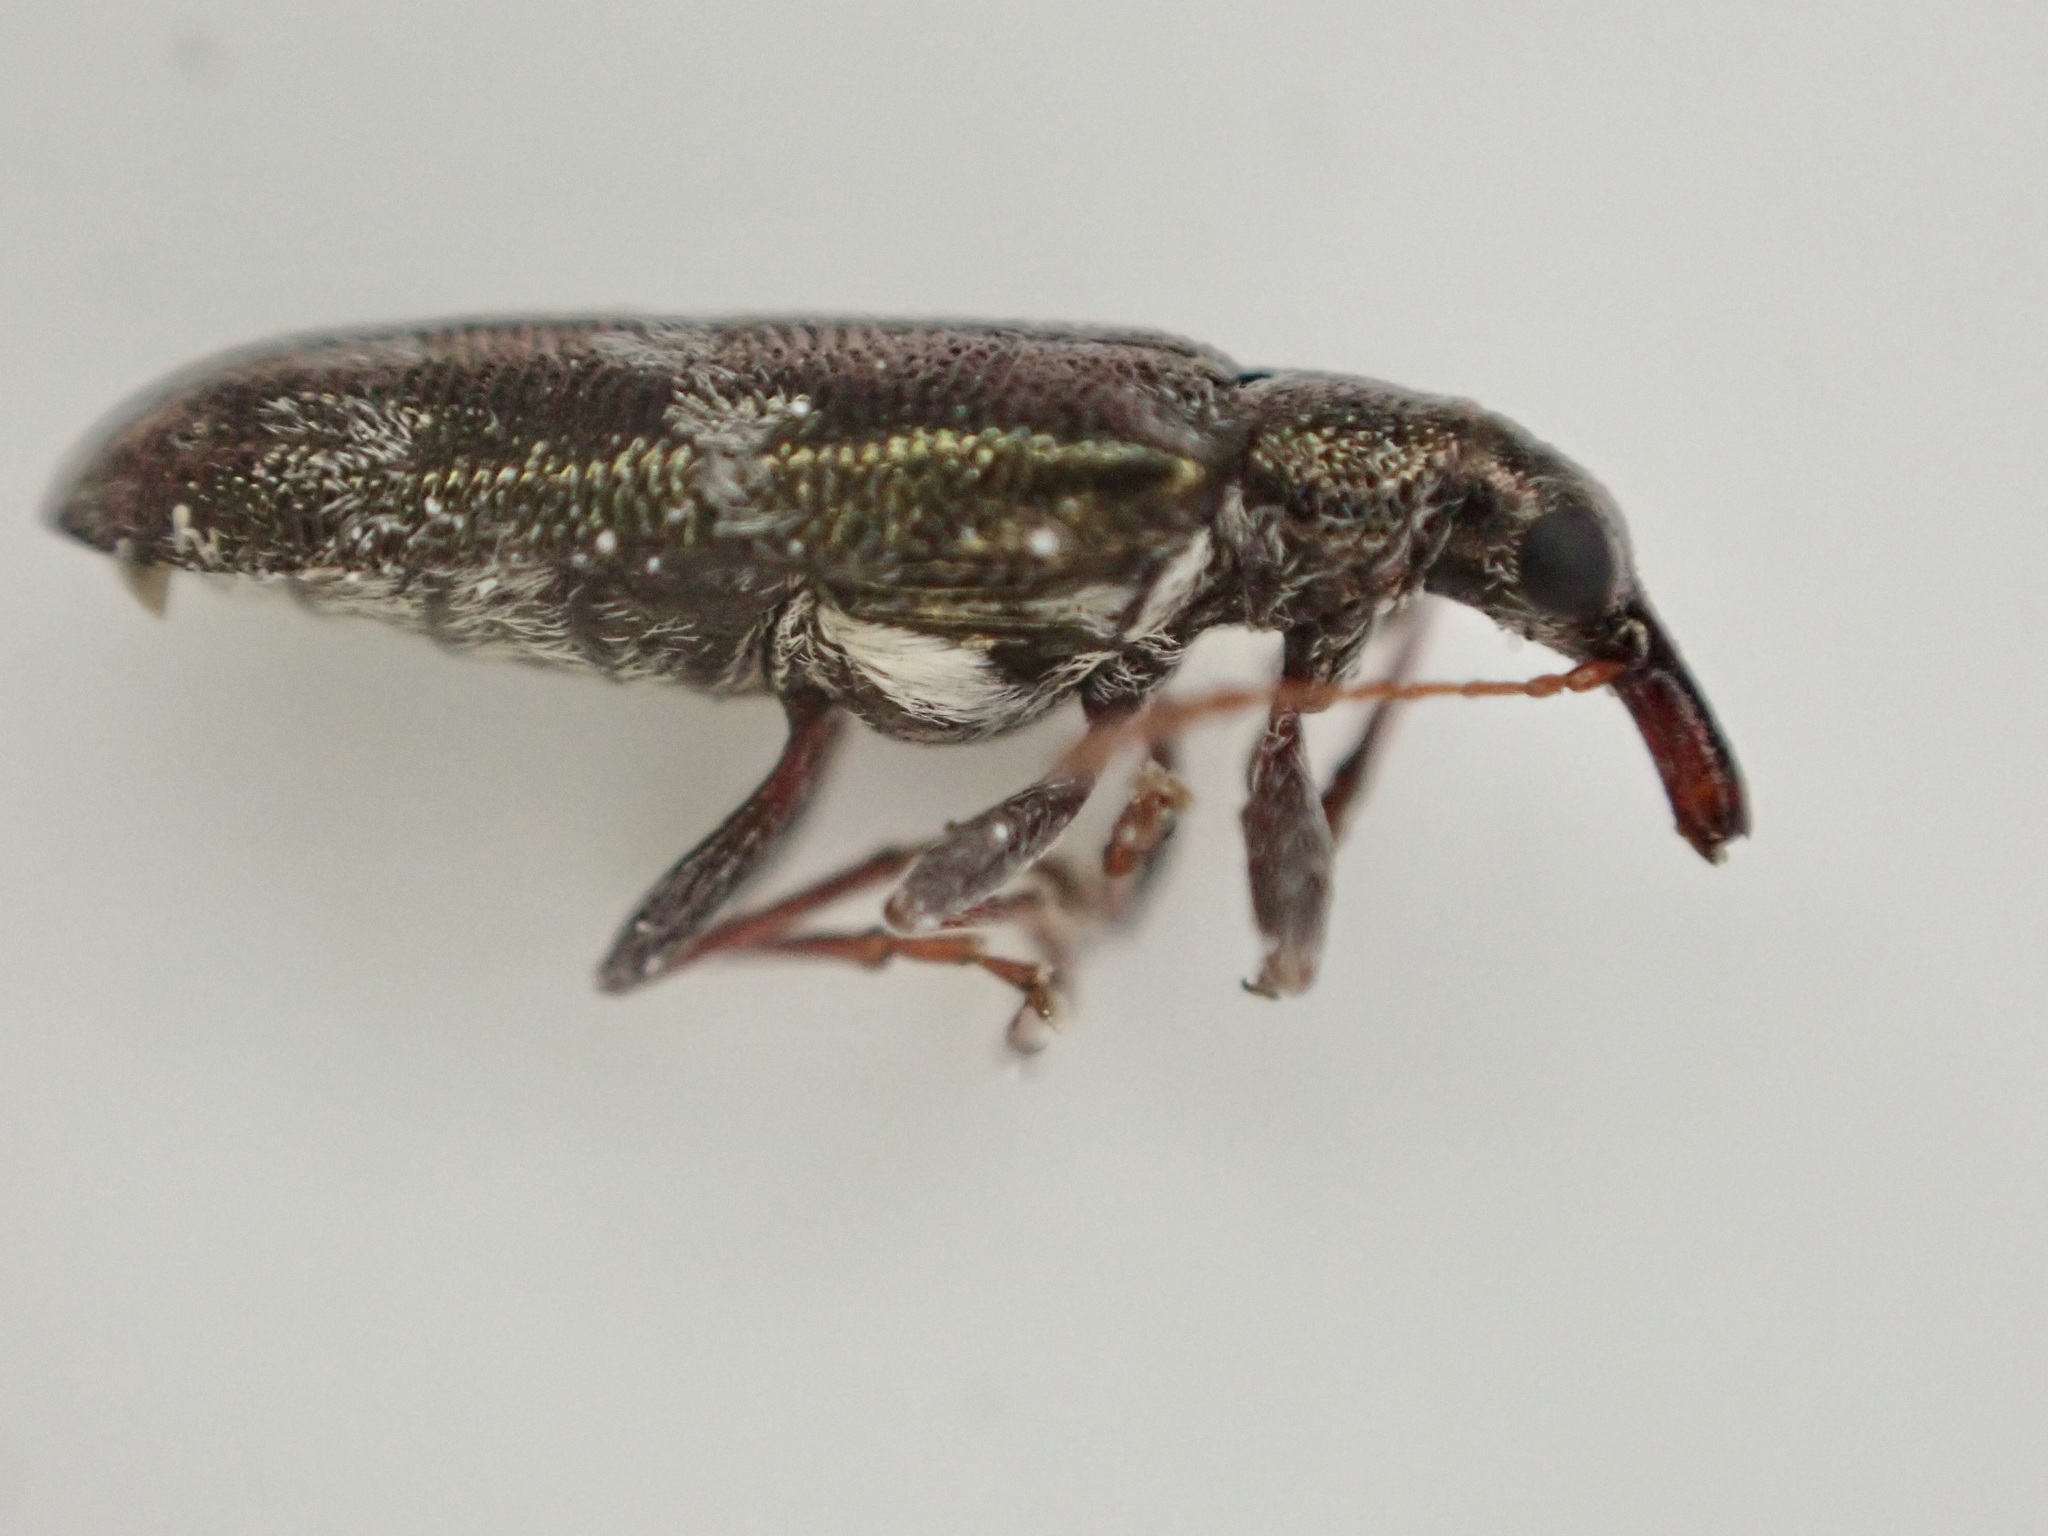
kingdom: Animalia
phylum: Arthropoda
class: Insecta
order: Coleoptera
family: Belidae
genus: Rhicnobelus
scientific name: Rhicnobelus
